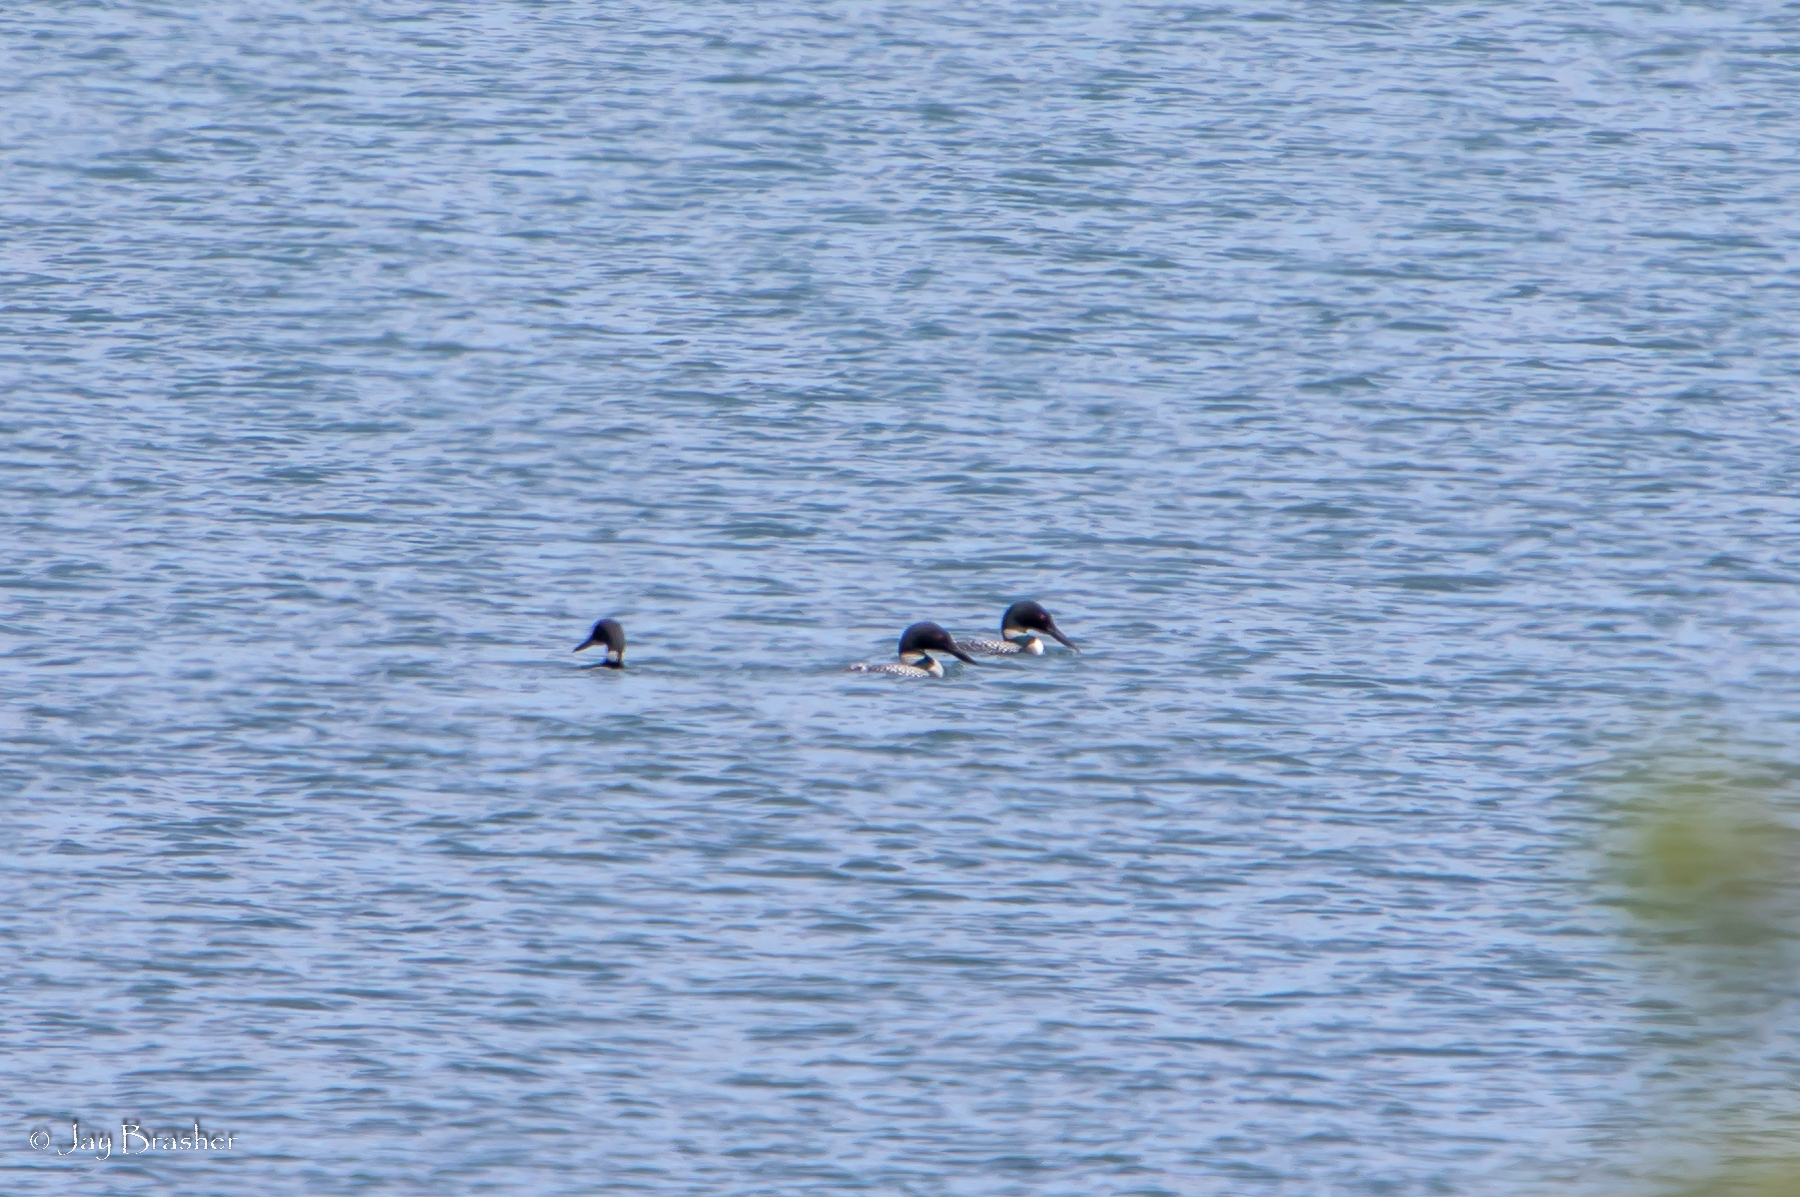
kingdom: Animalia
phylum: Chordata
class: Aves
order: Gaviiformes
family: Gaviidae
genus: Gavia
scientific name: Gavia immer
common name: Common loon
